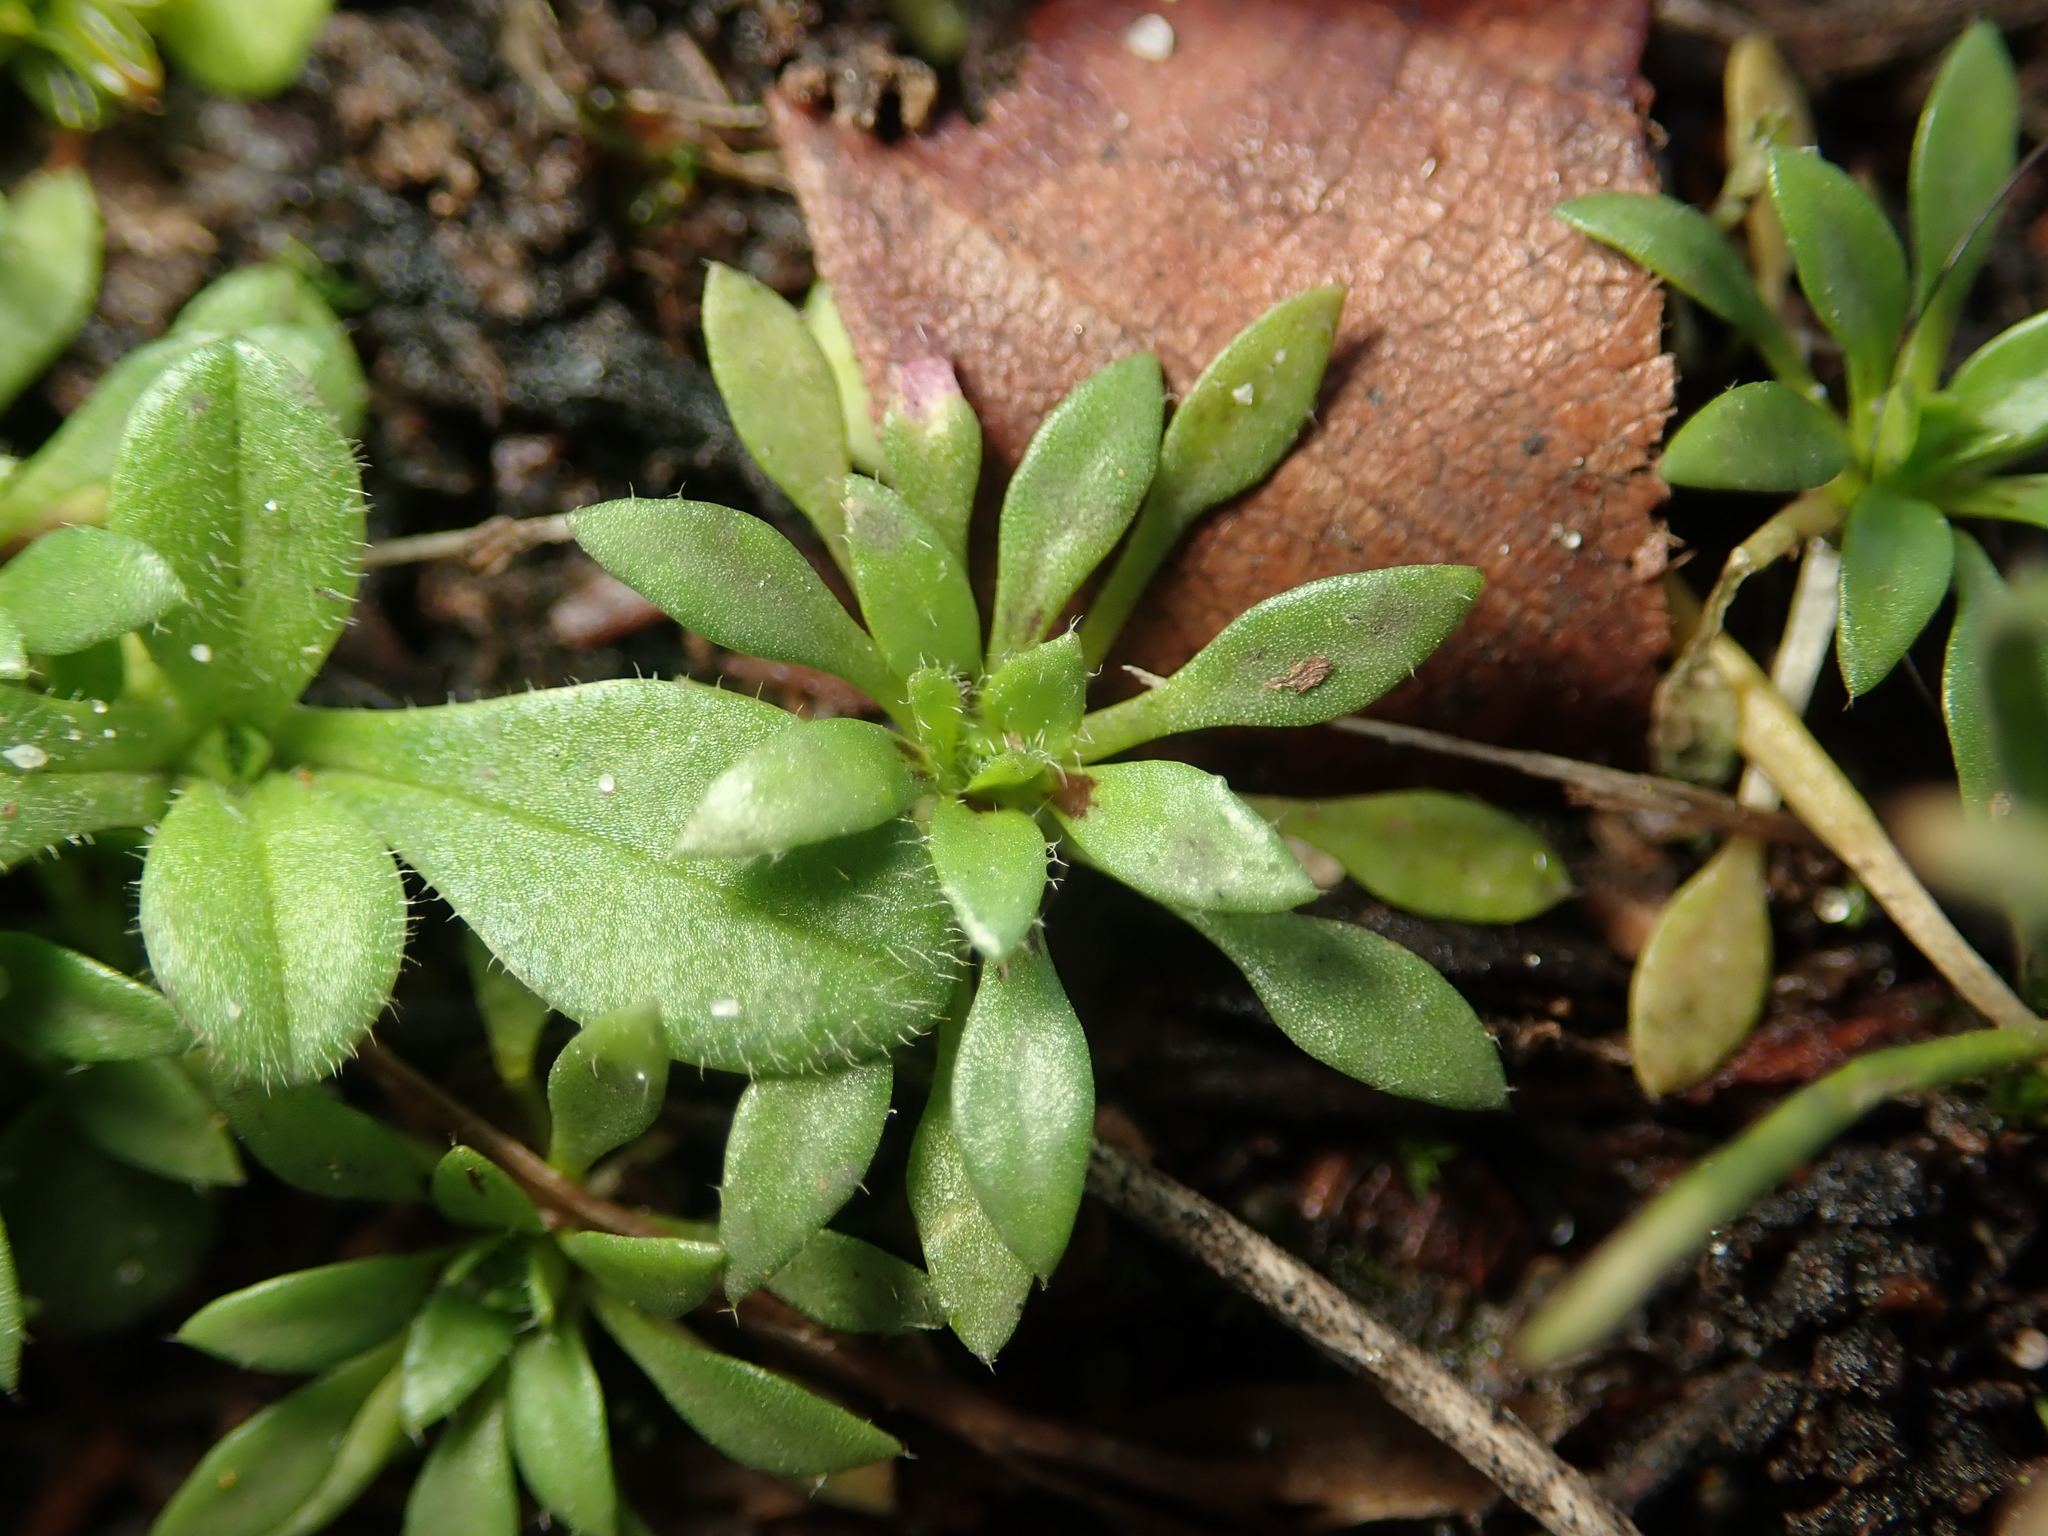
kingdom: Plantae
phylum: Tracheophyta
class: Magnoliopsida
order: Brassicales
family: Brassicaceae
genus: Draba
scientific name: Draba verna
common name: Spring draba
